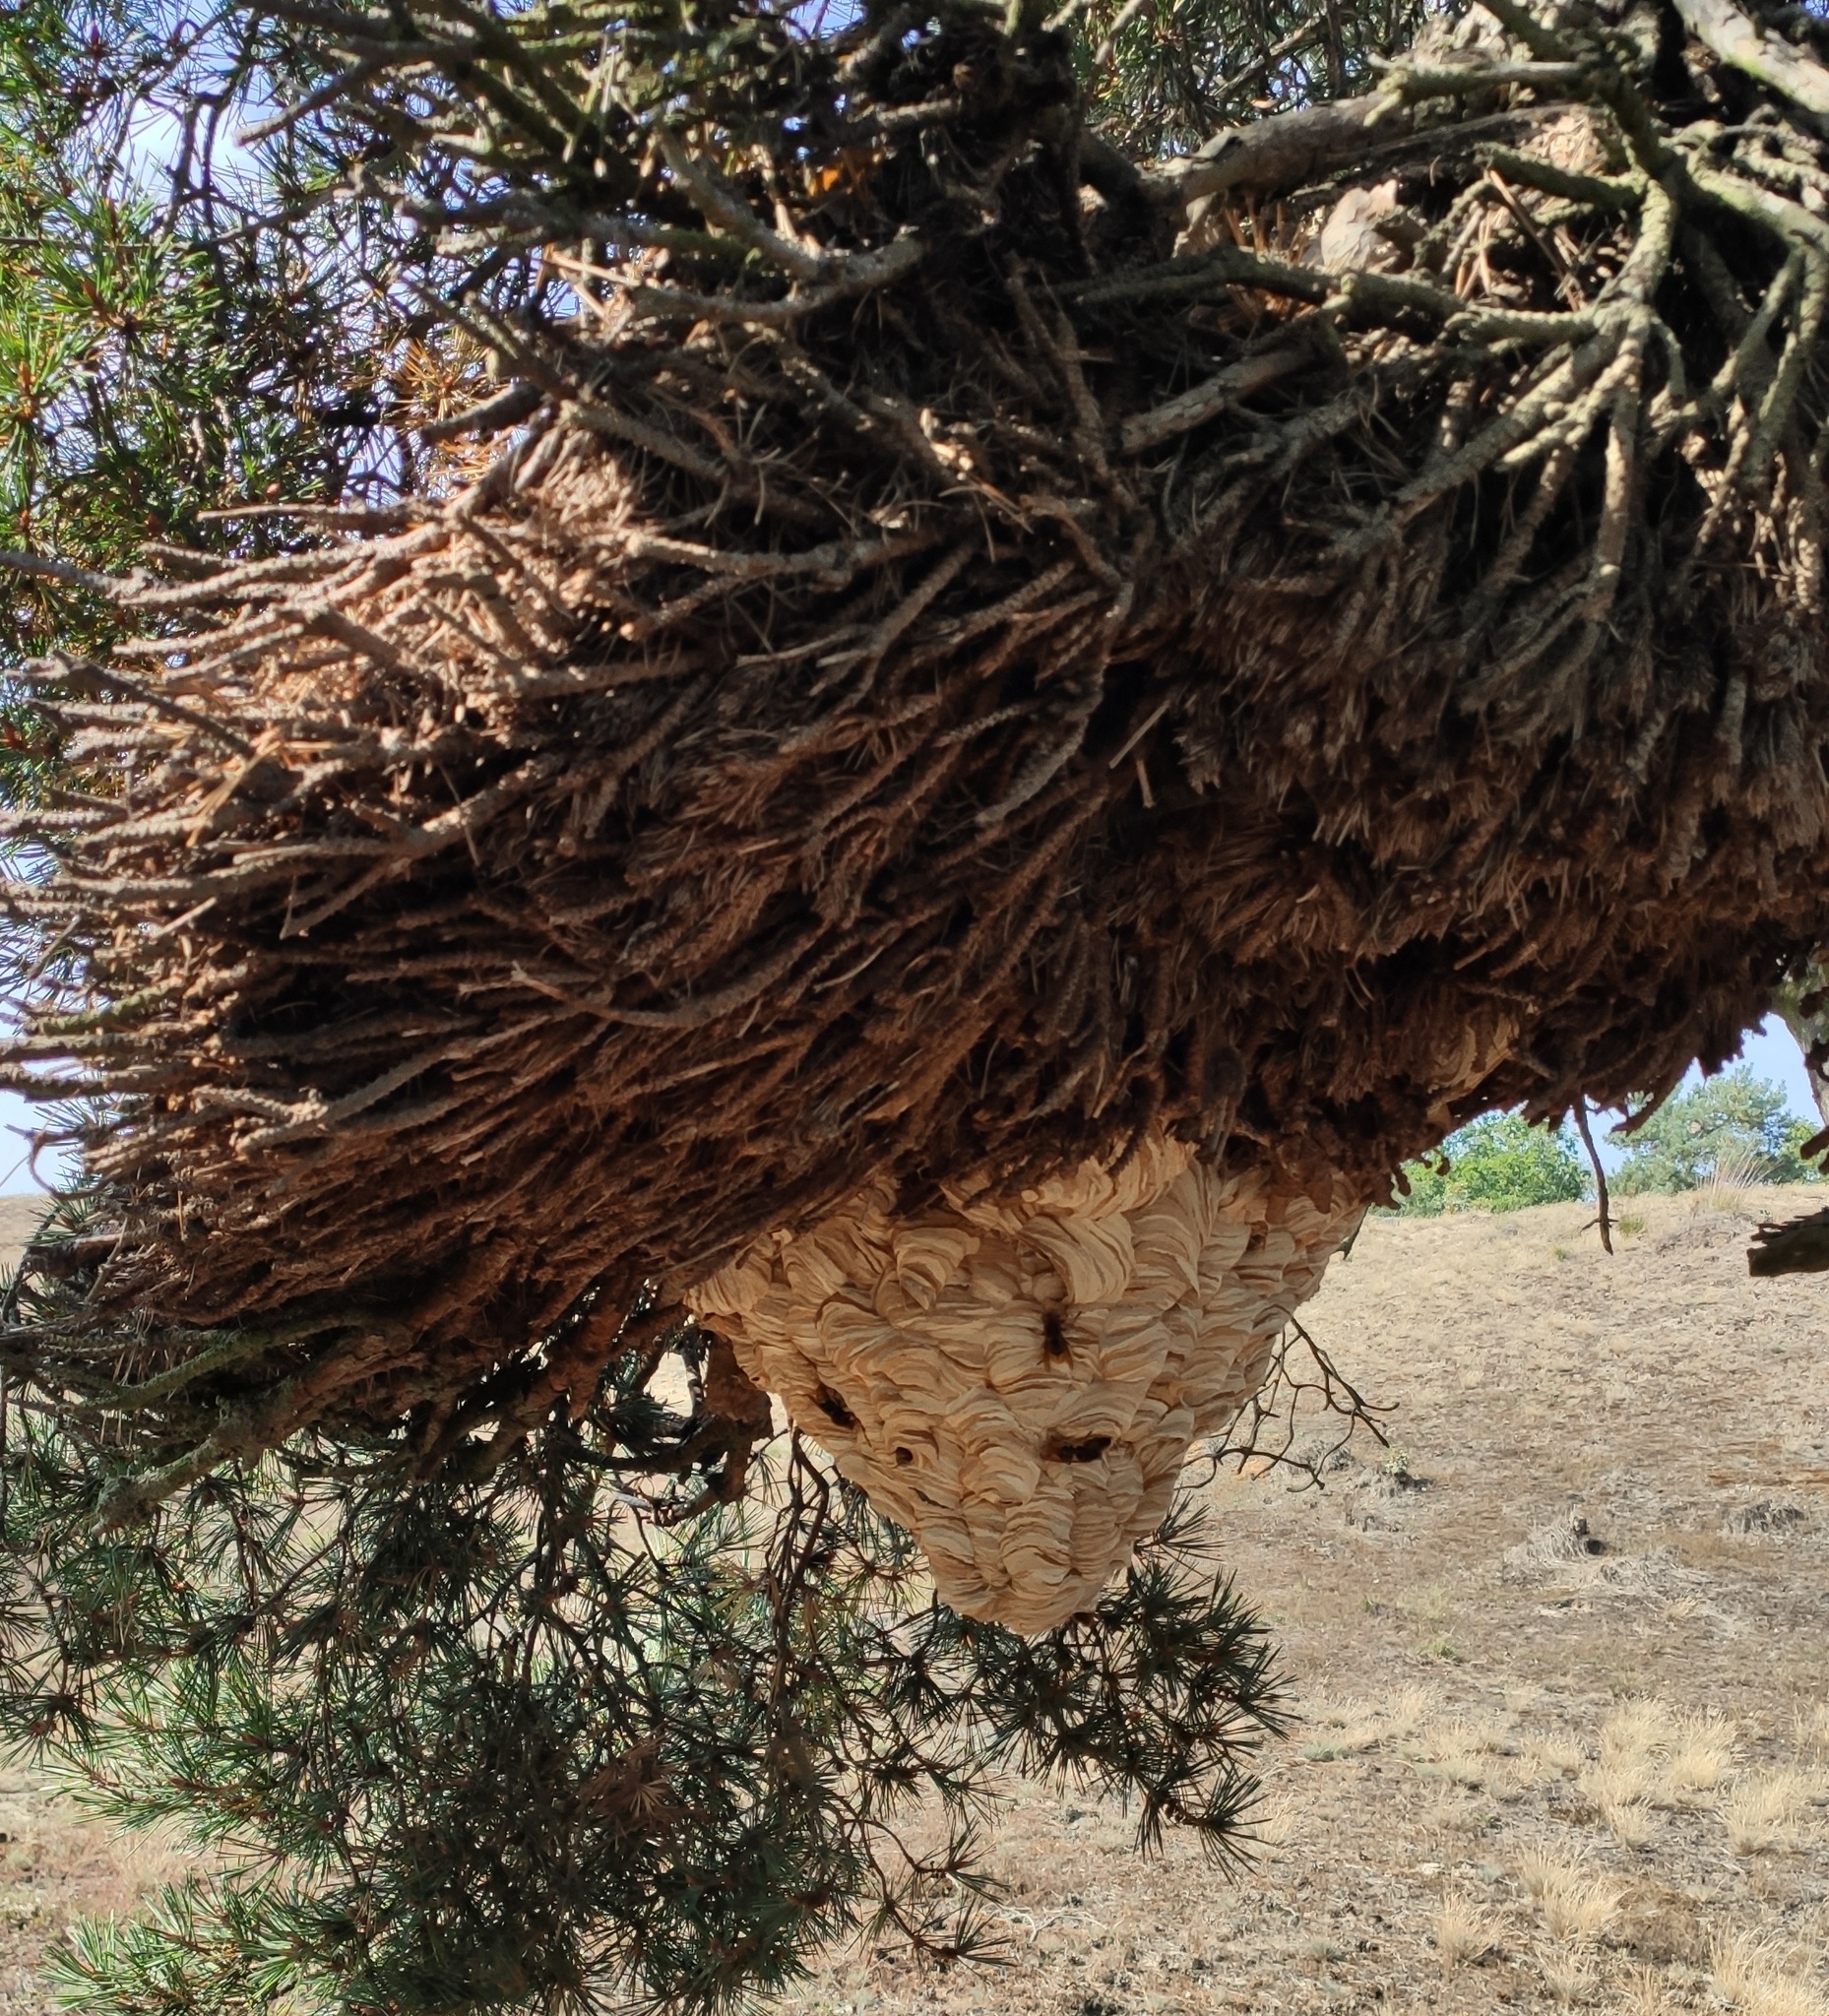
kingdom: Animalia
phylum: Arthropoda
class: Insecta
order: Hymenoptera
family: Vespidae
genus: Vespa
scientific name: Vespa crabro
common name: Hornet
